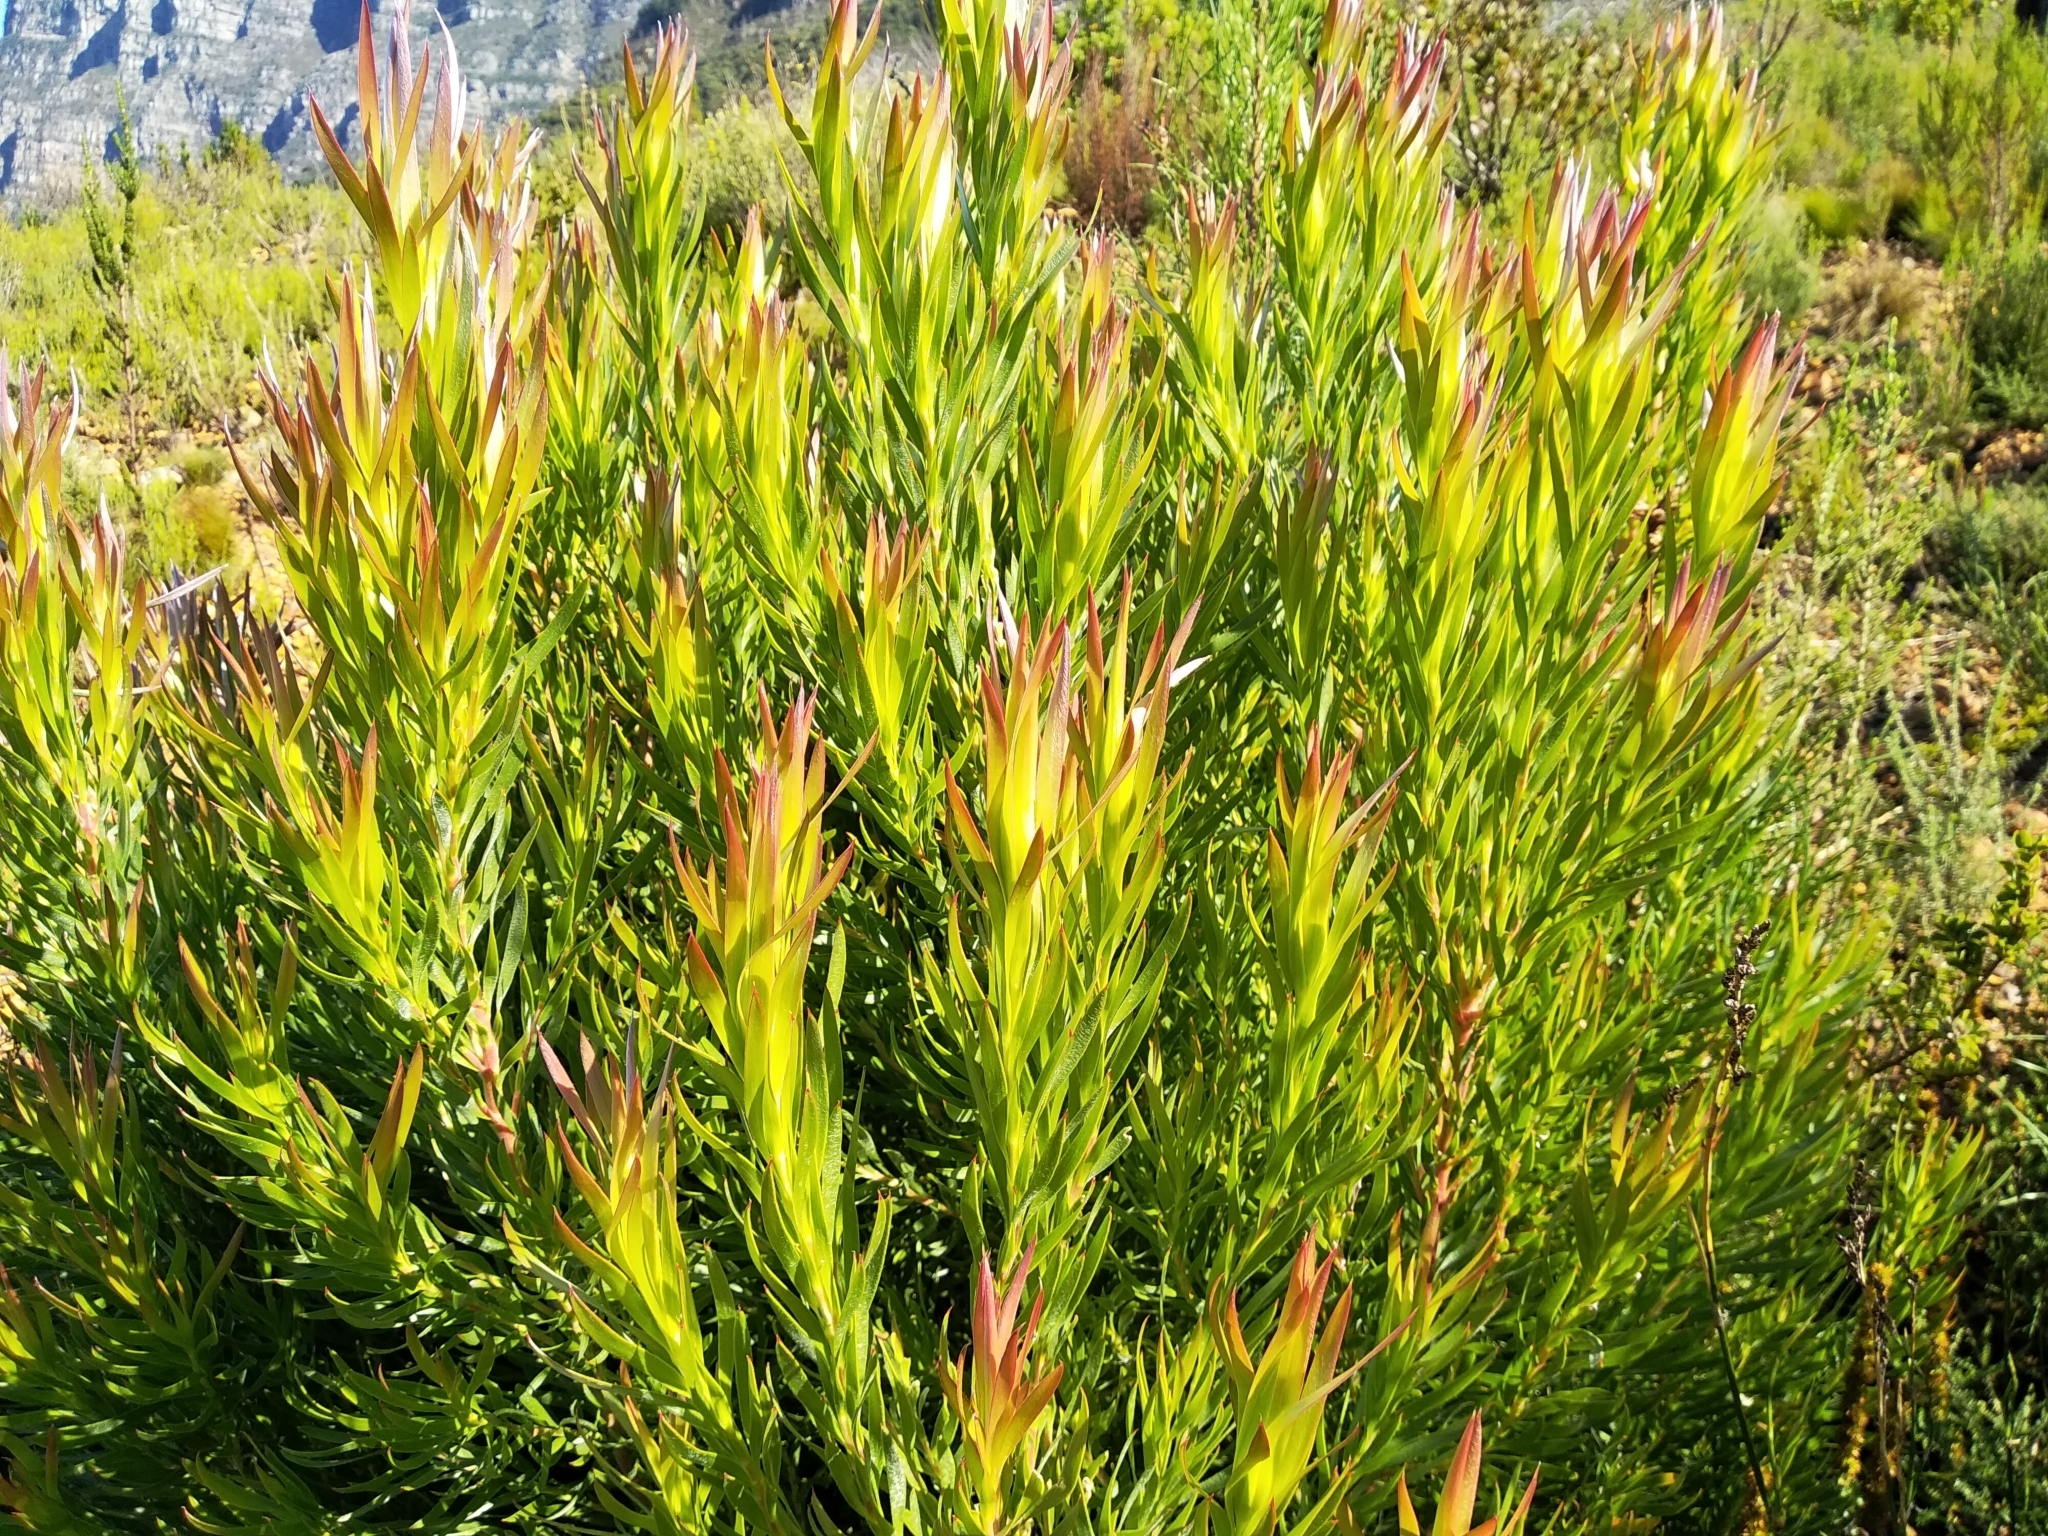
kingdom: Plantae
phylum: Tracheophyta
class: Magnoliopsida
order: Proteales
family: Proteaceae
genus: Leucadendron
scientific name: Leucadendron xanthoconus
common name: Sickle-leaf conebush
